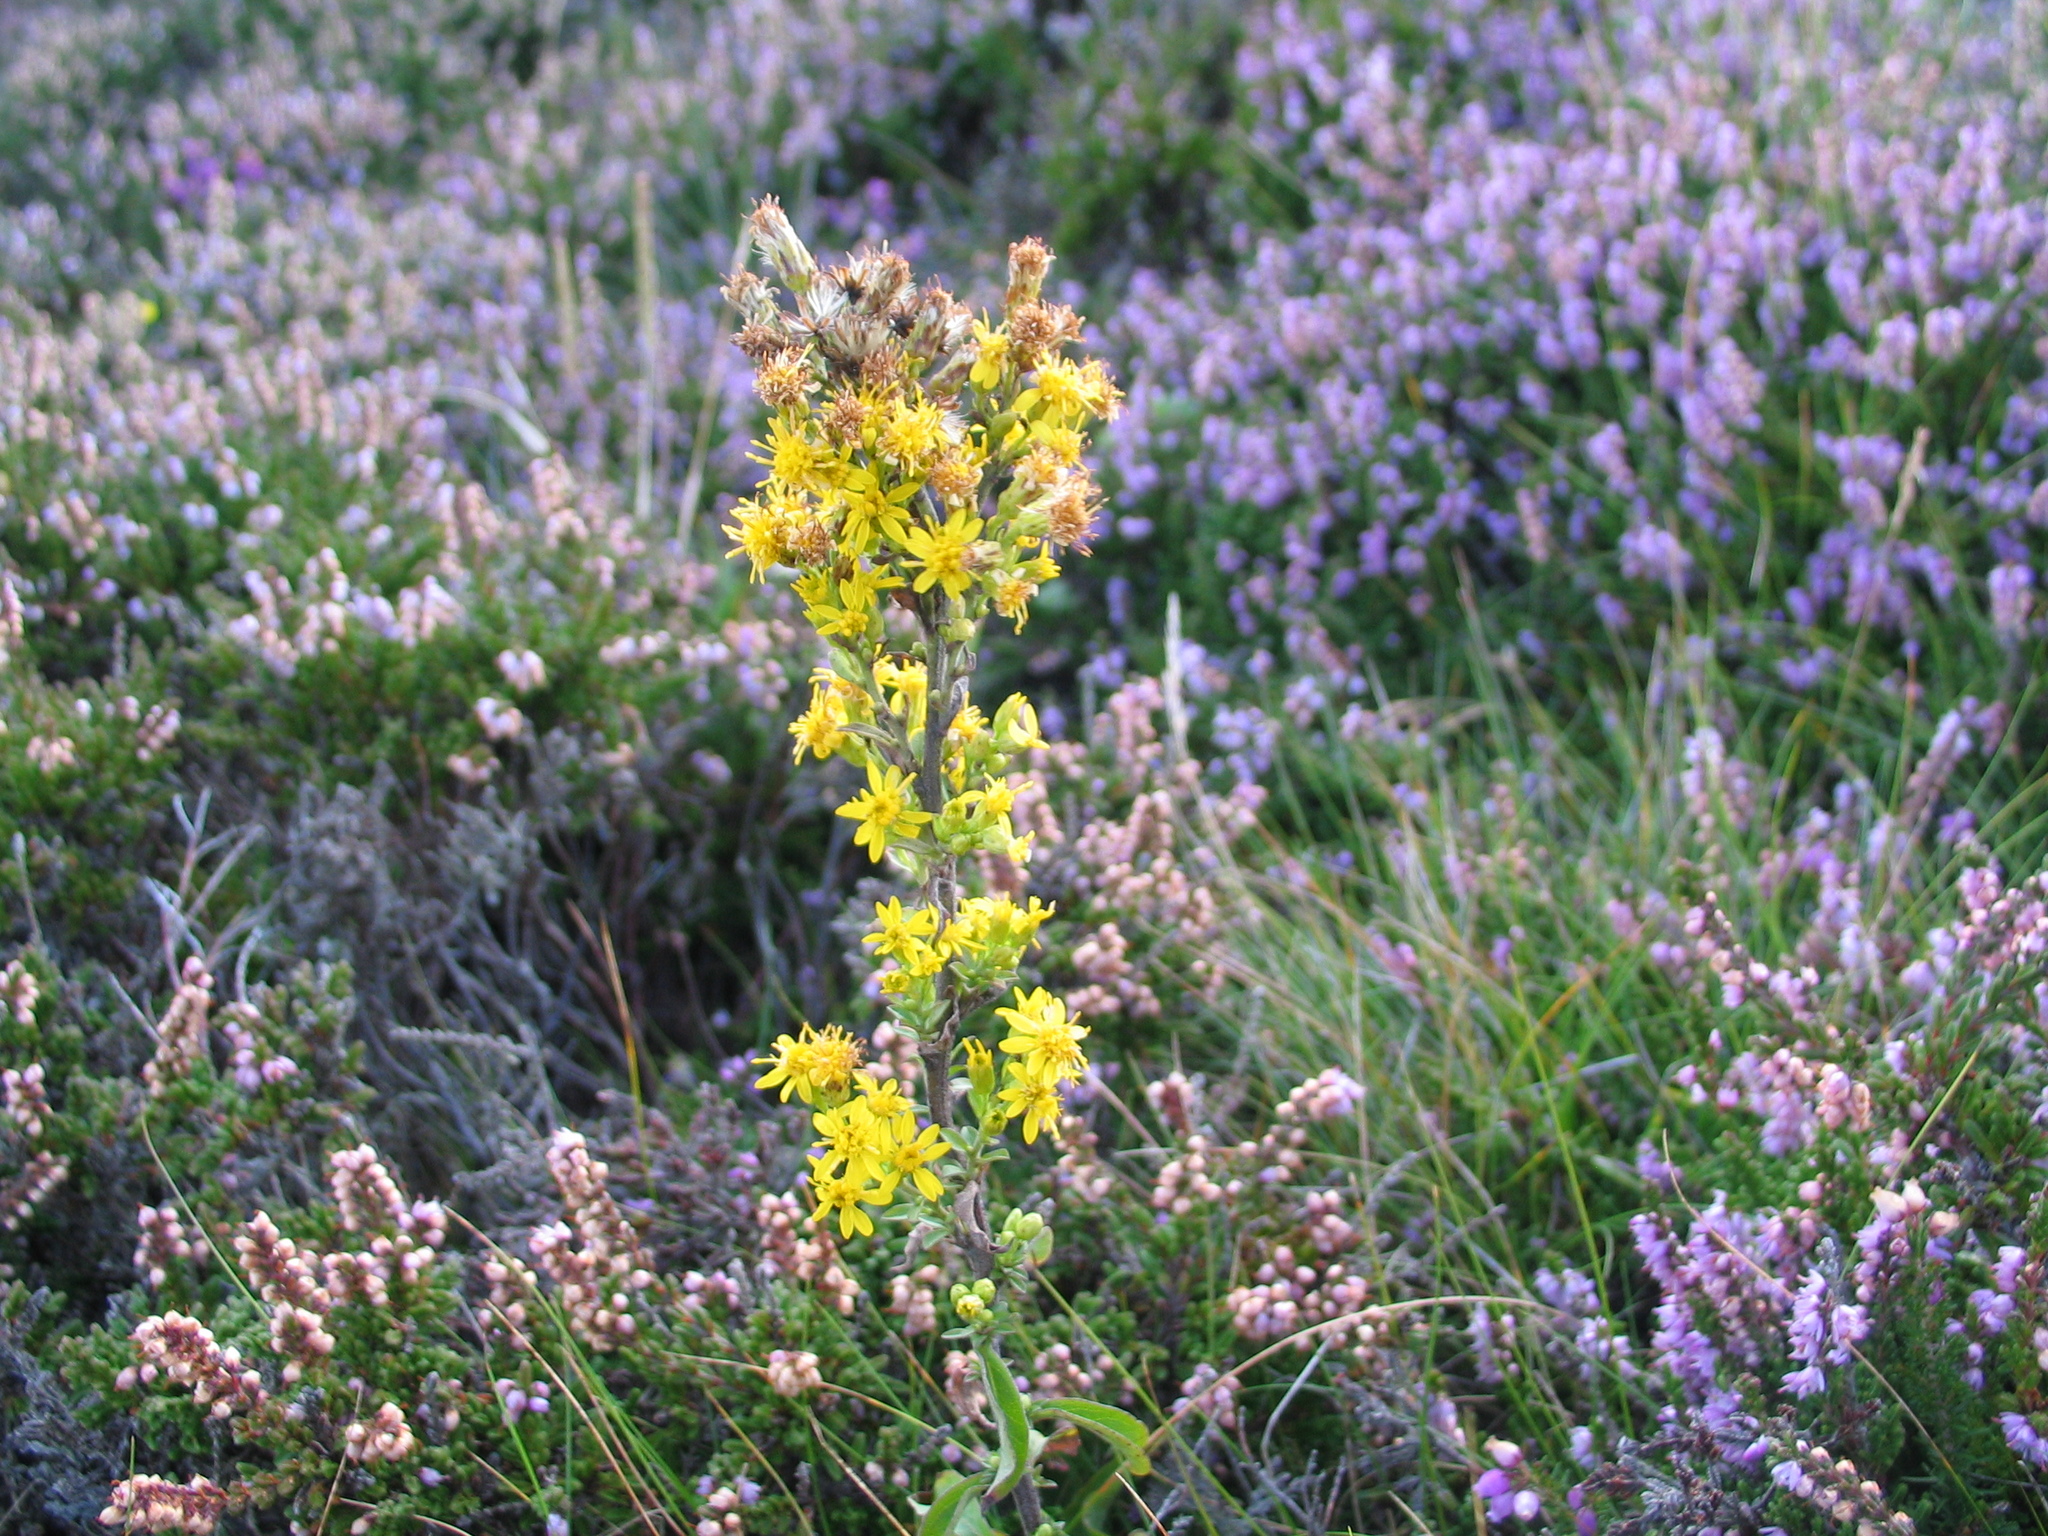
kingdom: Plantae
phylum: Tracheophyta
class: Magnoliopsida
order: Asterales
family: Asteraceae
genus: Solidago
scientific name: Solidago virgaurea
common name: Goldenrod
